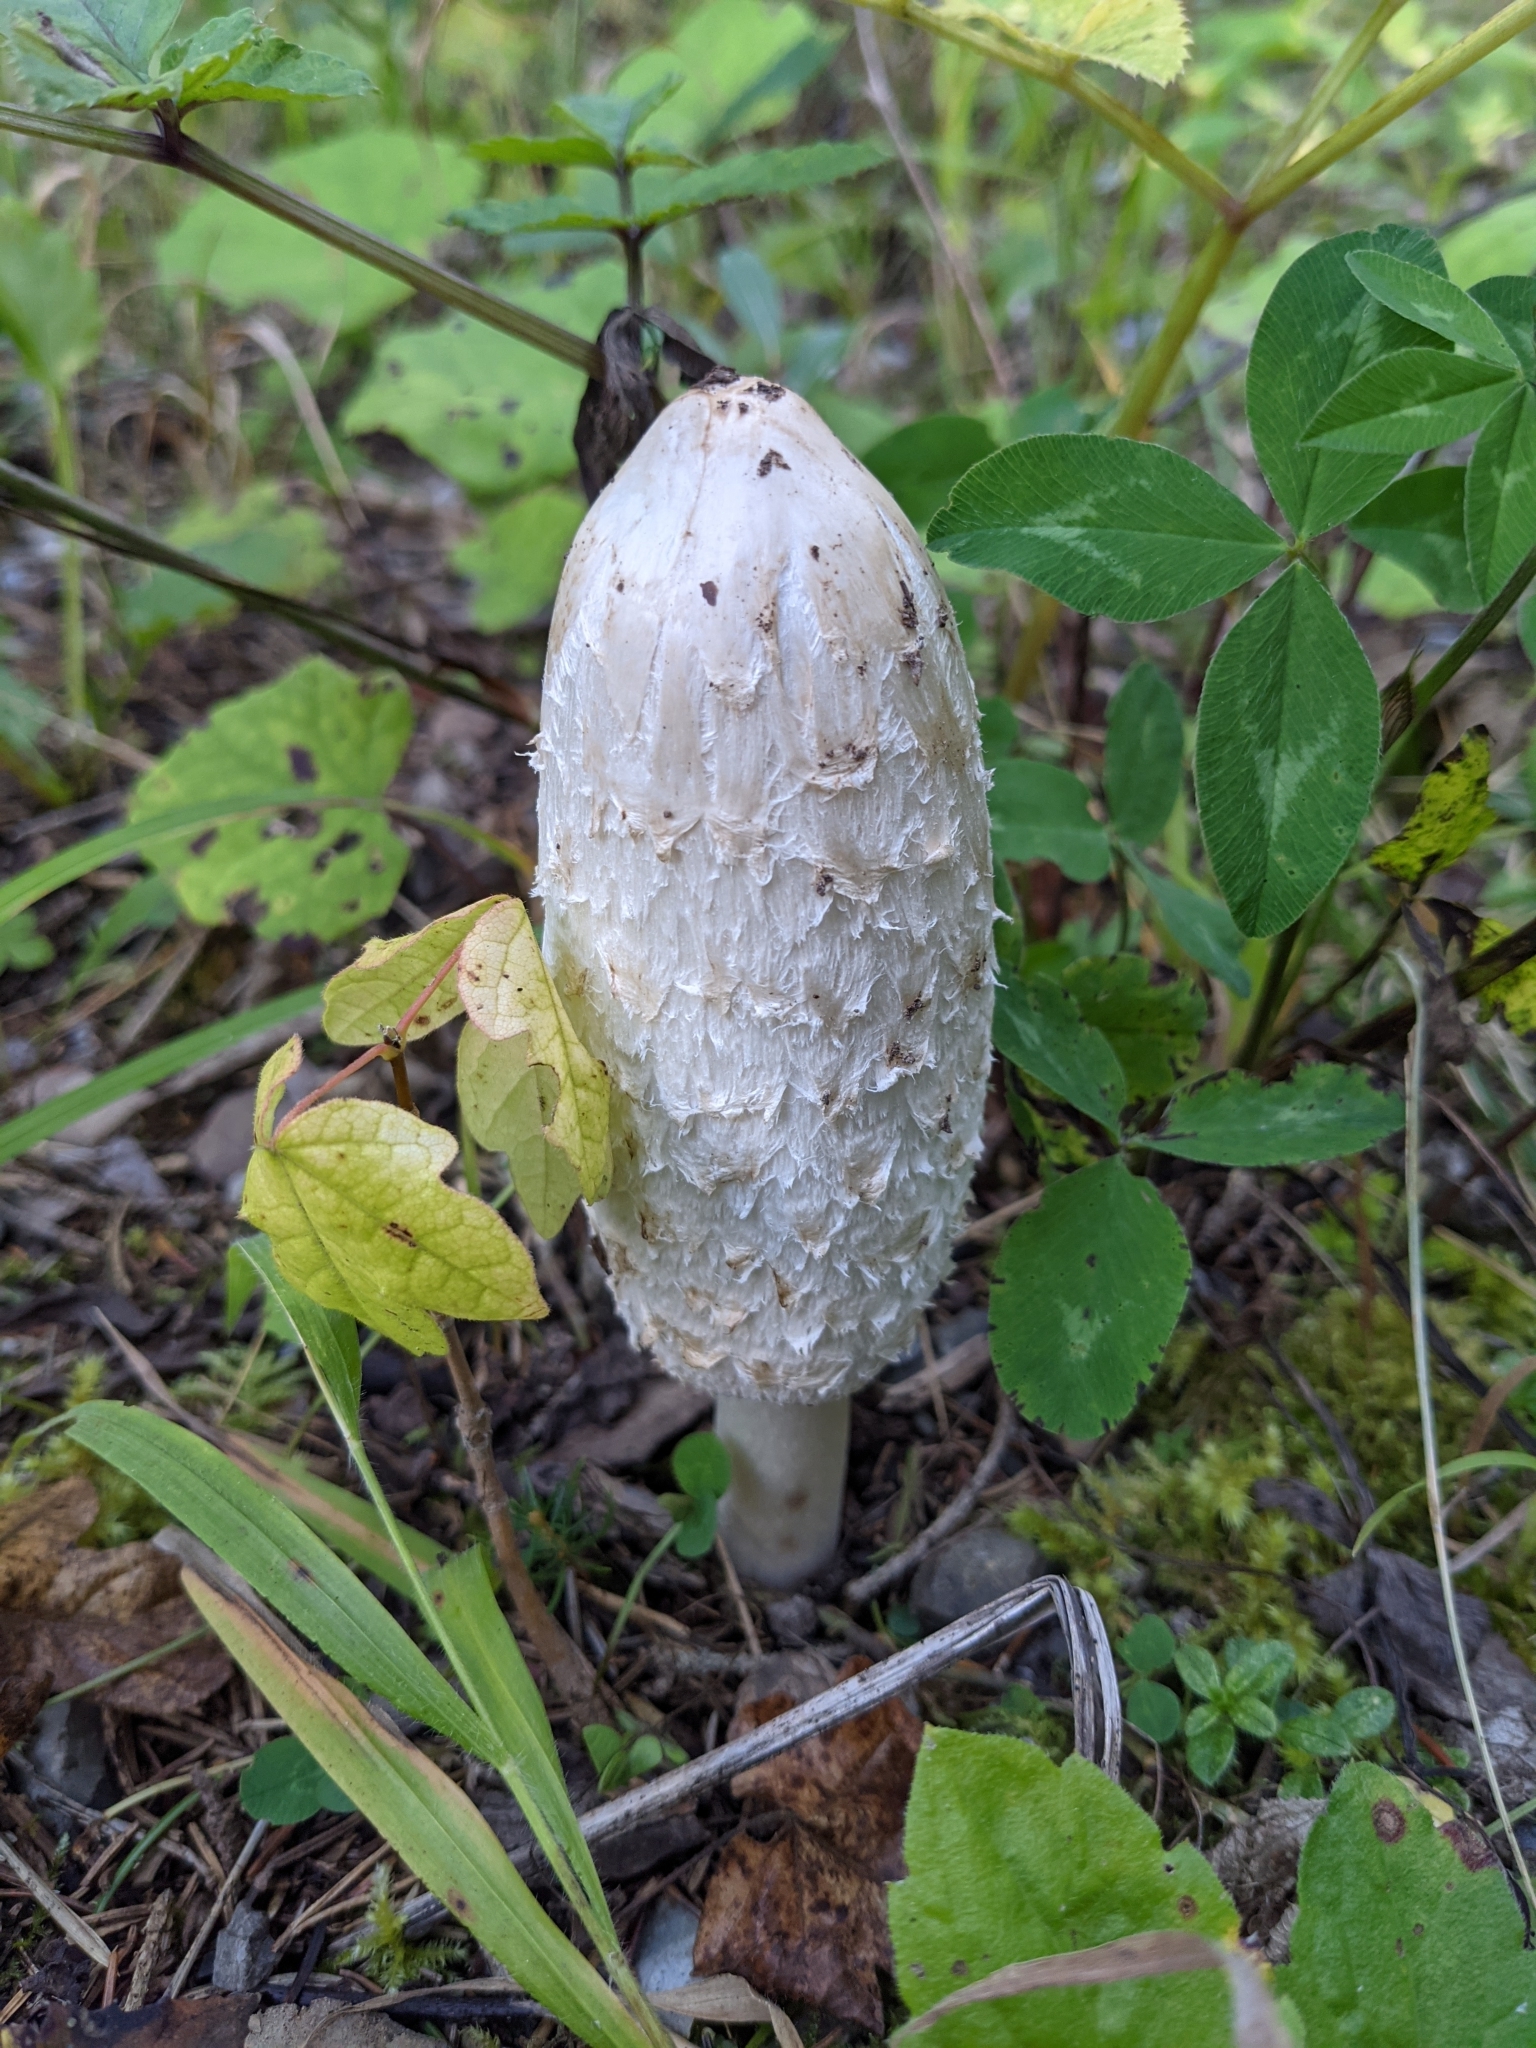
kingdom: Fungi
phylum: Basidiomycota
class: Agaricomycetes
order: Agaricales
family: Agaricaceae
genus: Coprinus
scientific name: Coprinus comatus
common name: Lawyer's wig
